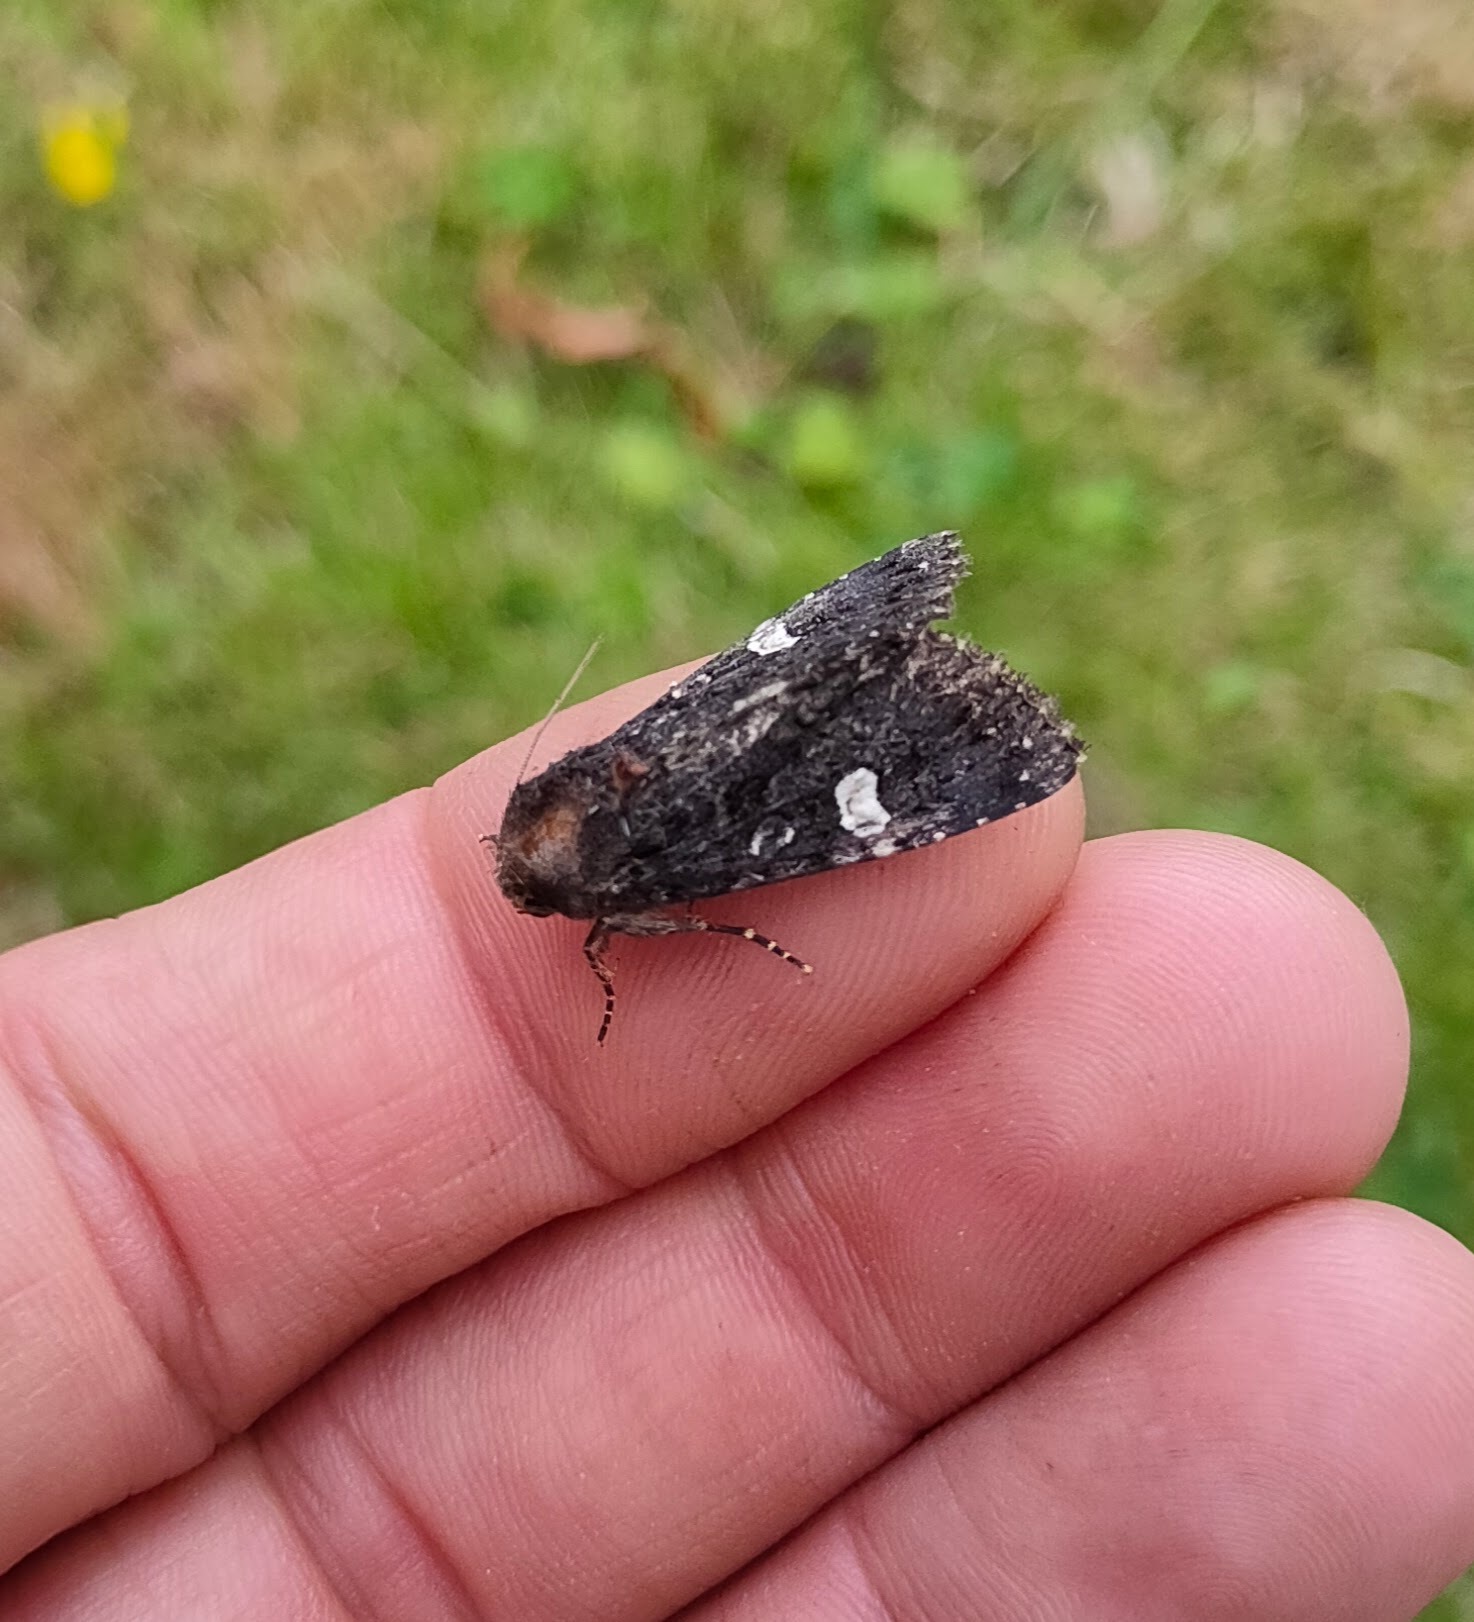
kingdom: Animalia
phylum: Arthropoda
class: Insecta
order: Lepidoptera
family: Noctuidae
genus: Melanchra
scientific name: Melanchra persicariae
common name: Dot moth
